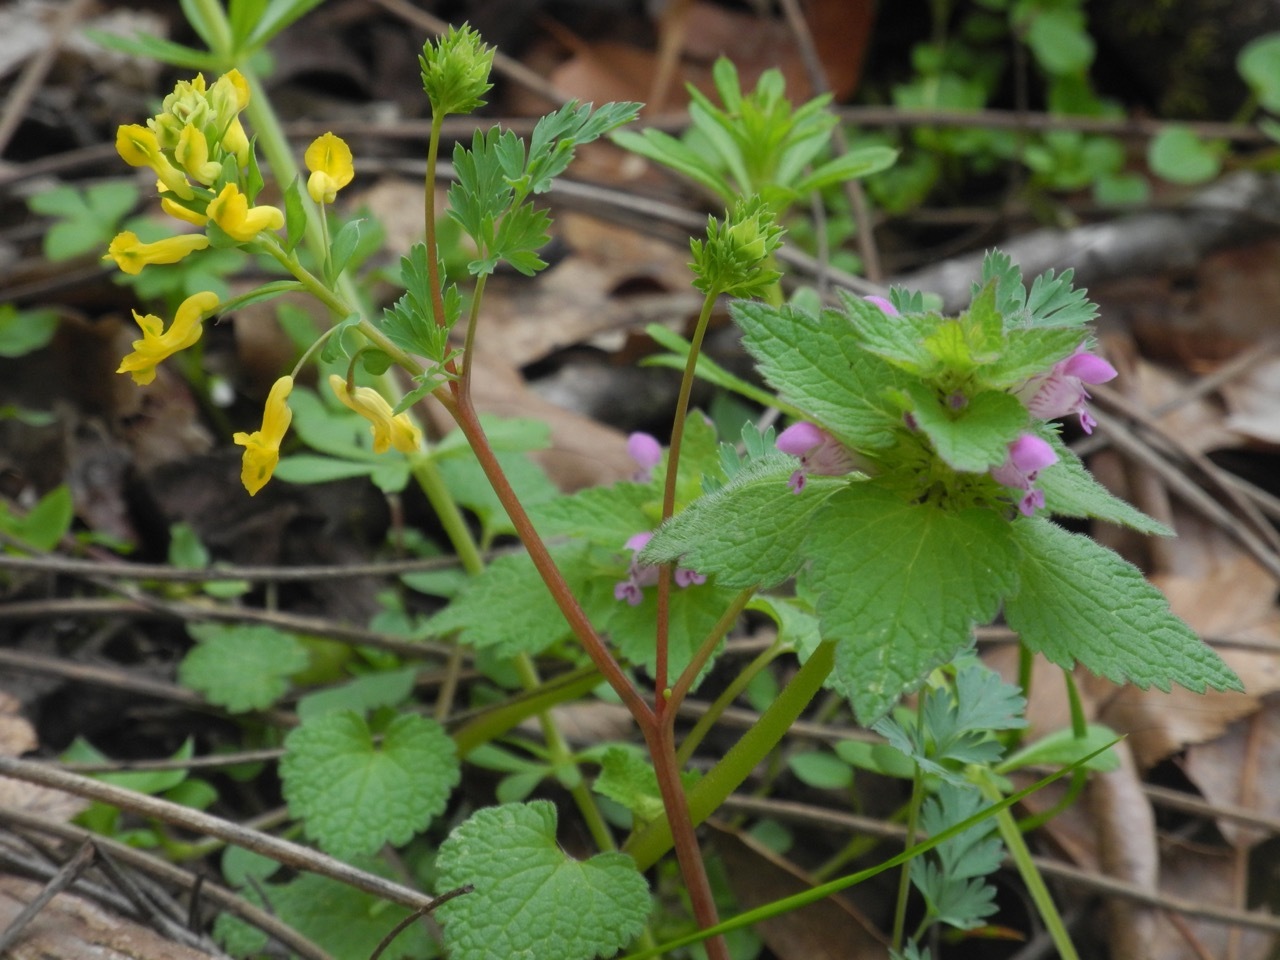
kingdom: Plantae
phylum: Tracheophyta
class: Magnoliopsida
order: Lamiales
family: Lamiaceae
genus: Lamium
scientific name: Lamium purpureum
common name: Red dead-nettle
